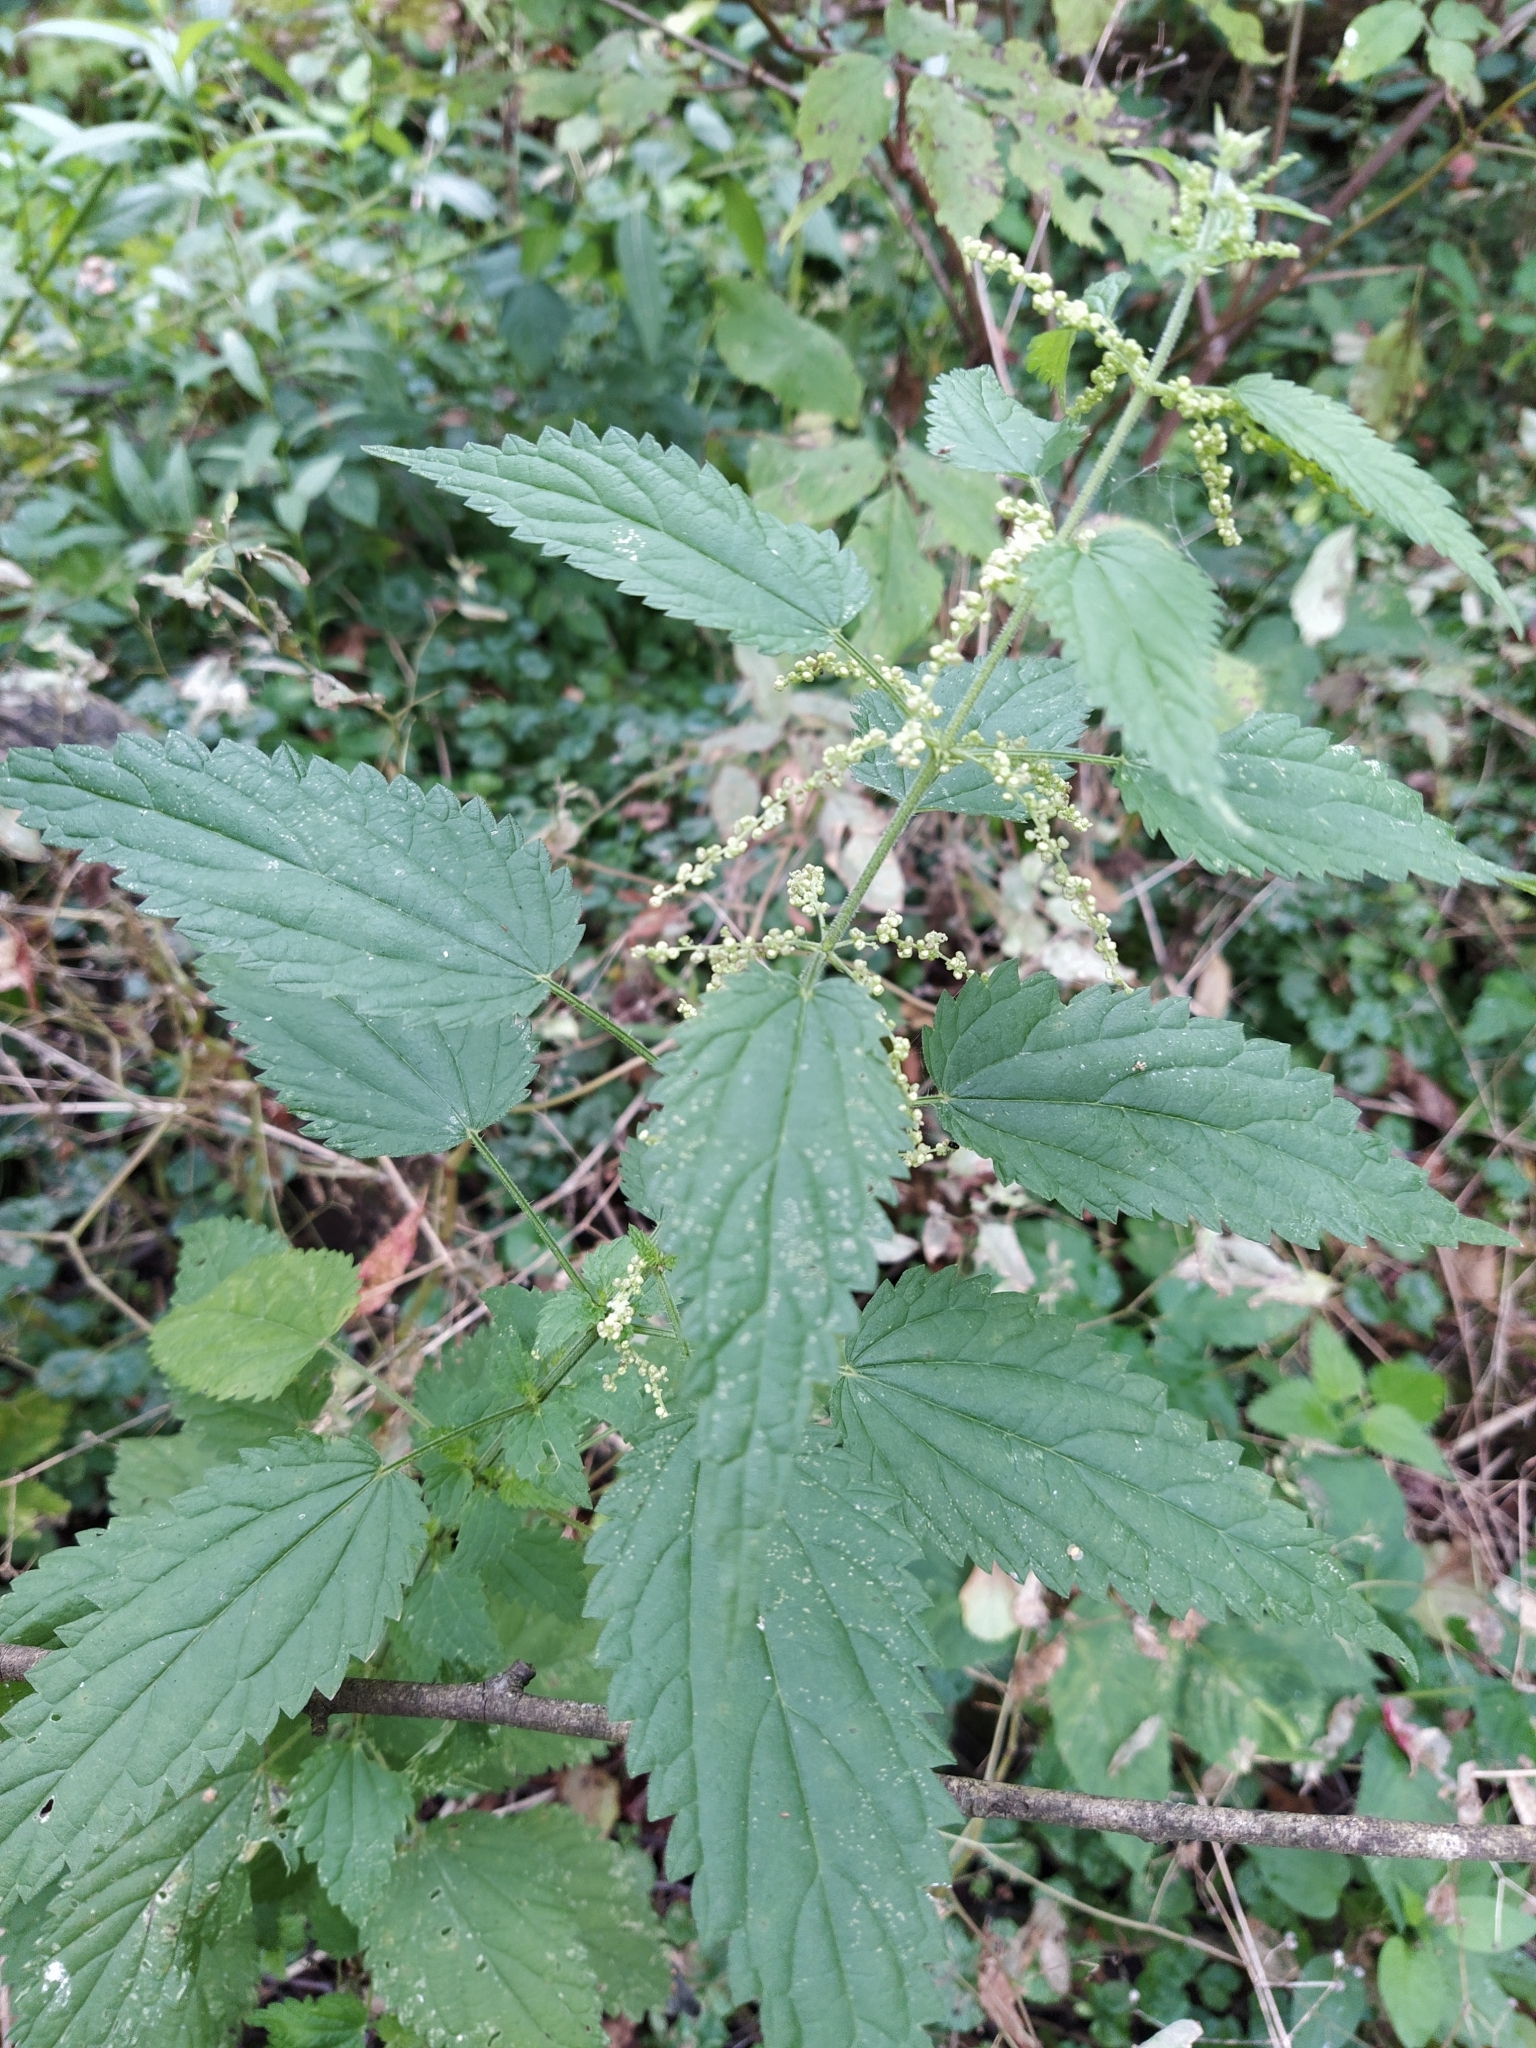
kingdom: Plantae
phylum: Tracheophyta
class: Magnoliopsida
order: Rosales
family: Urticaceae
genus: Urtica
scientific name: Urtica dioica
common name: Common nettle
